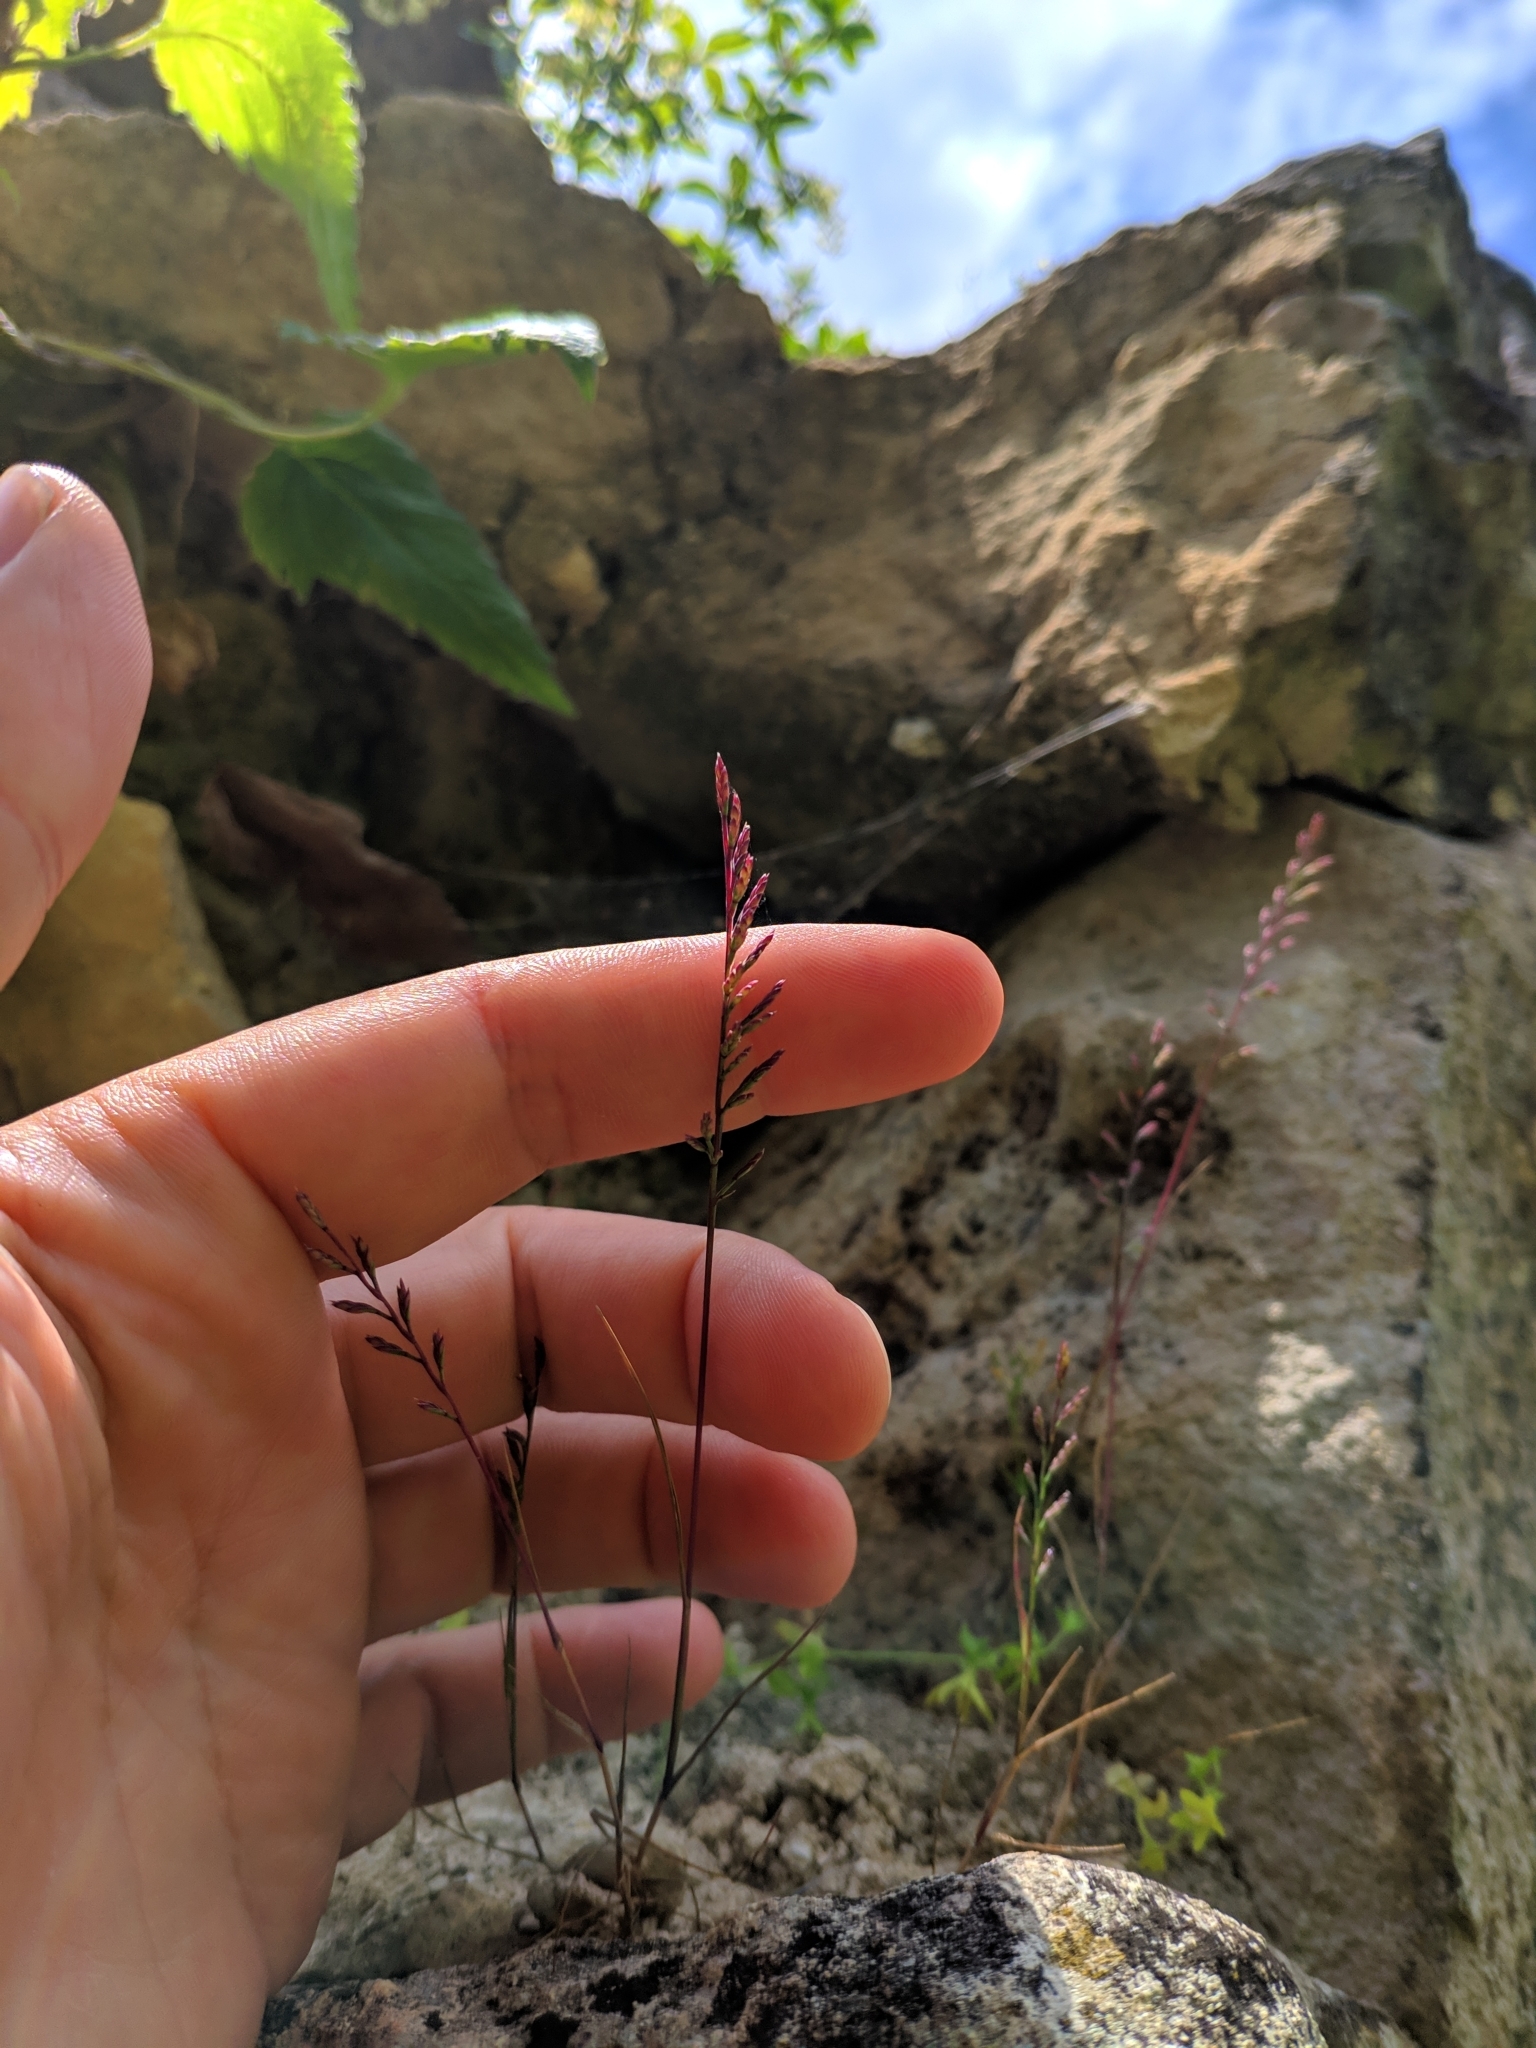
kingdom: Plantae
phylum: Tracheophyta
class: Liliopsida
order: Poales
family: Poaceae
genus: Catapodium
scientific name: Catapodium rigidum
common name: Fern-grass
